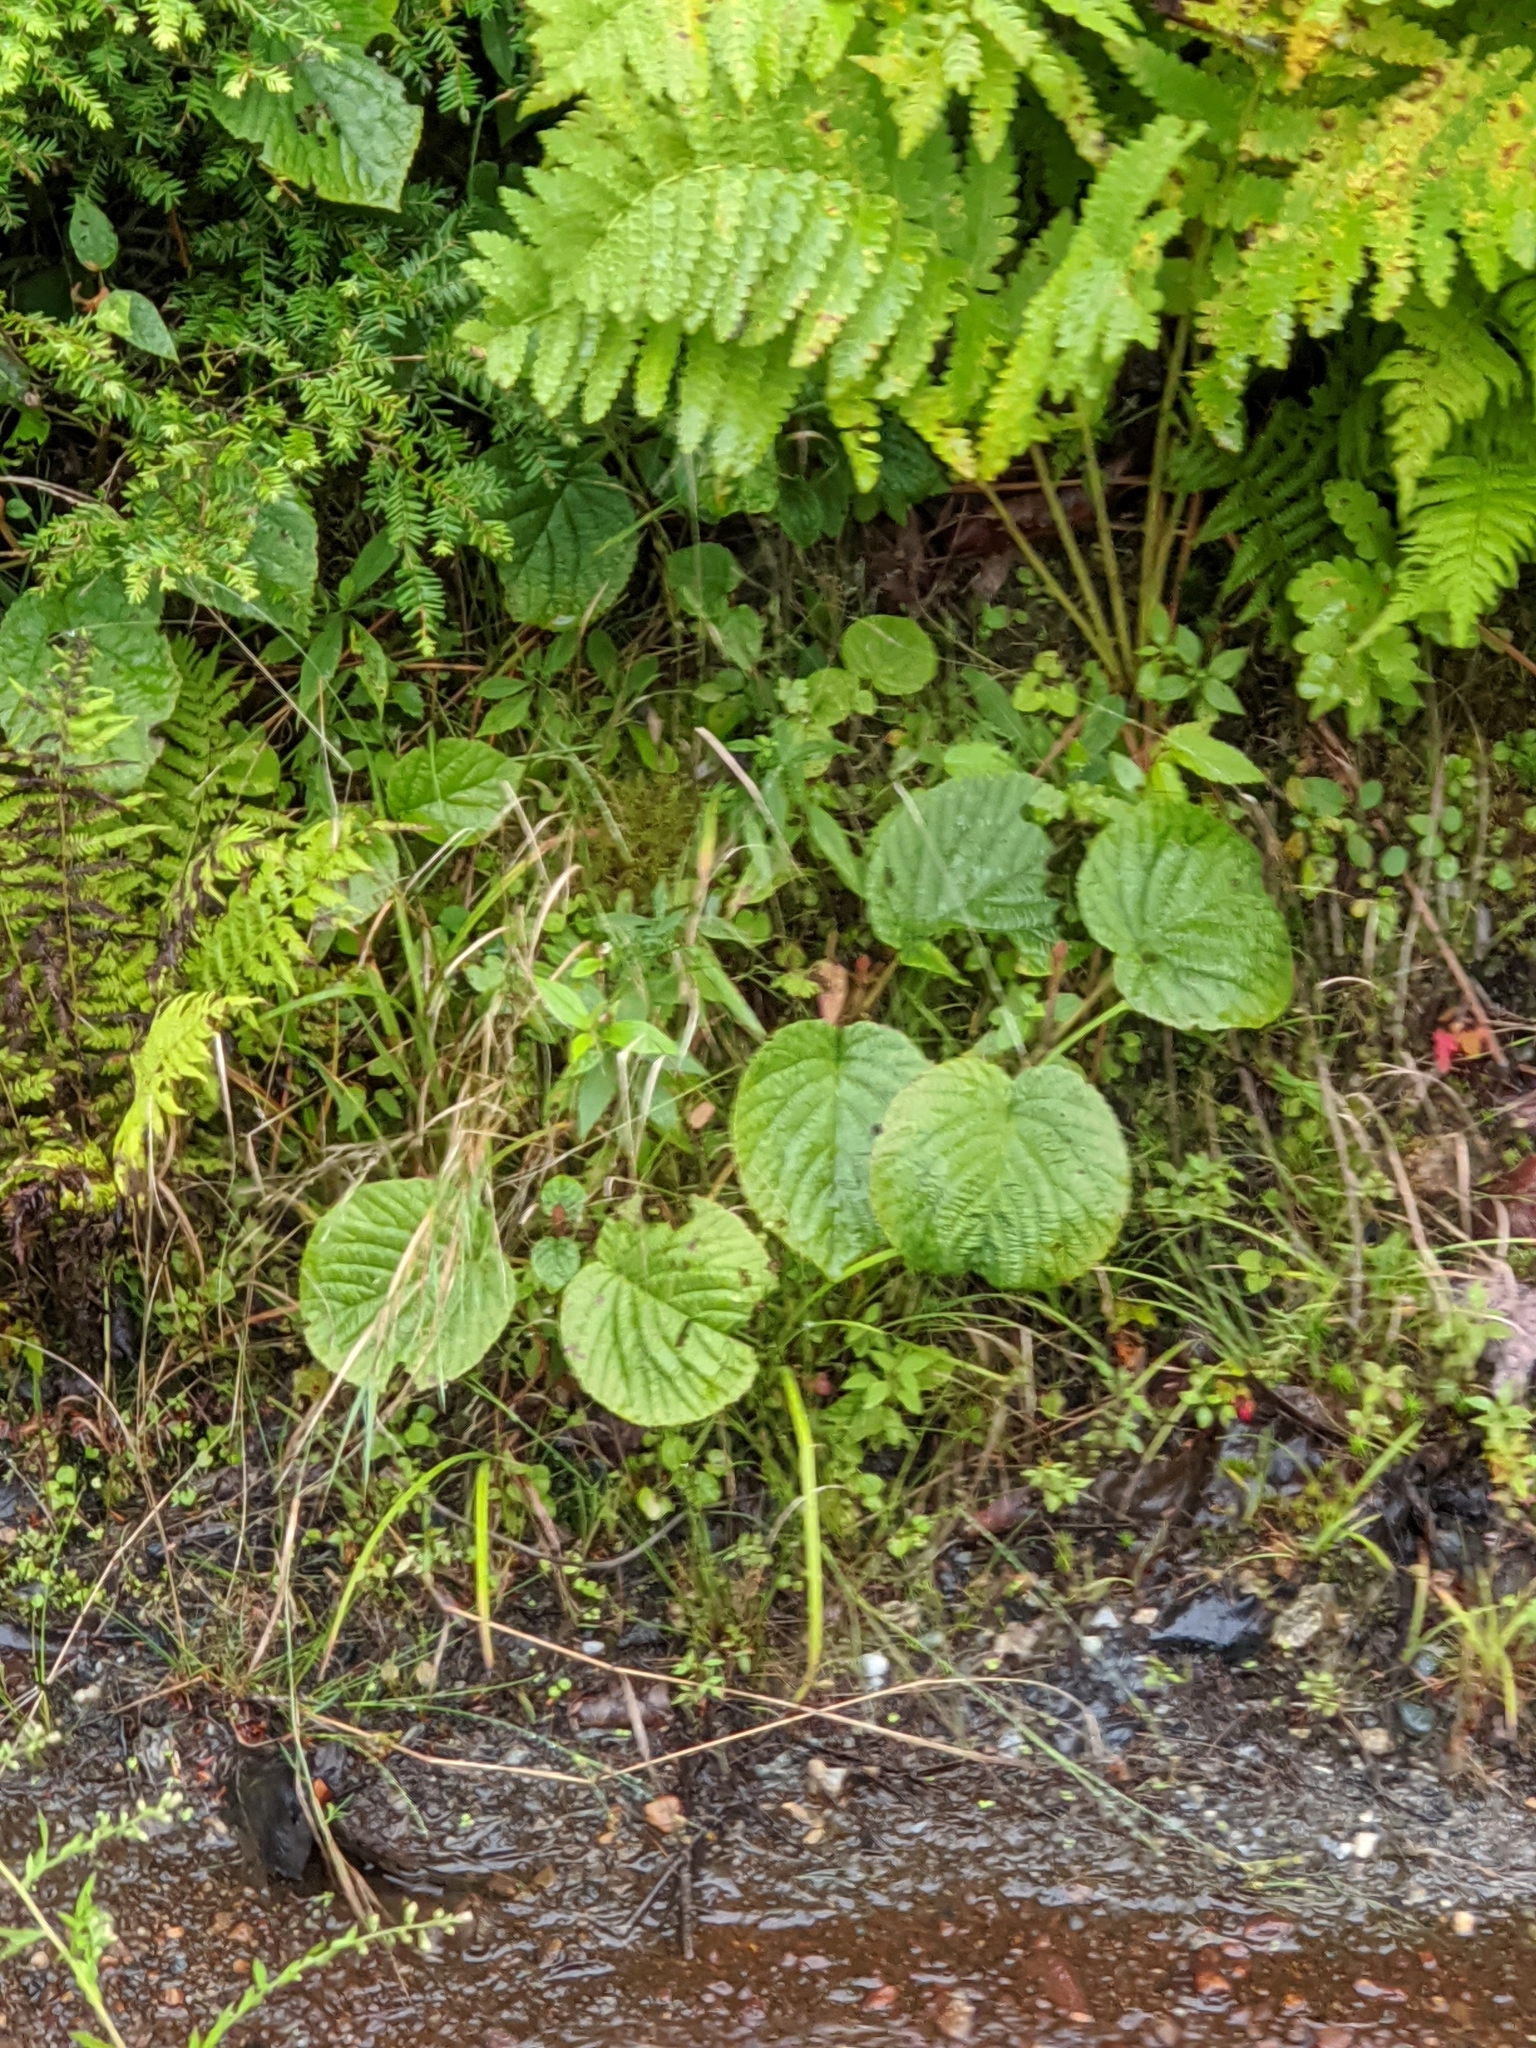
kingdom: Plantae
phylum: Tracheophyta
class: Magnoliopsida
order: Dipsacales
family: Viburnaceae
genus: Viburnum
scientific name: Viburnum lantanoides
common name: Hobblebush
